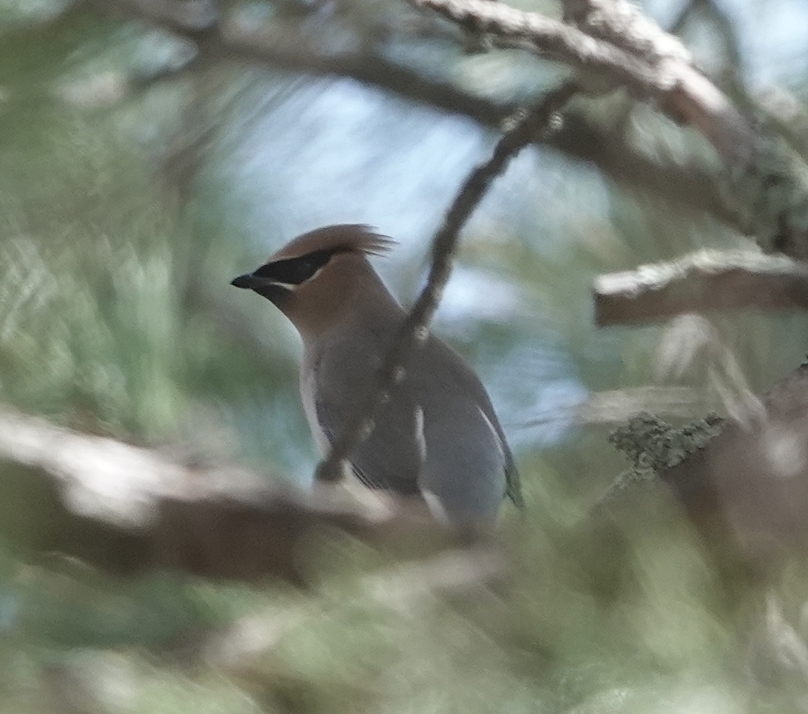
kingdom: Animalia
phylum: Chordata
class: Aves
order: Passeriformes
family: Bombycillidae
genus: Bombycilla
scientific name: Bombycilla cedrorum
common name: Cedar waxwing
